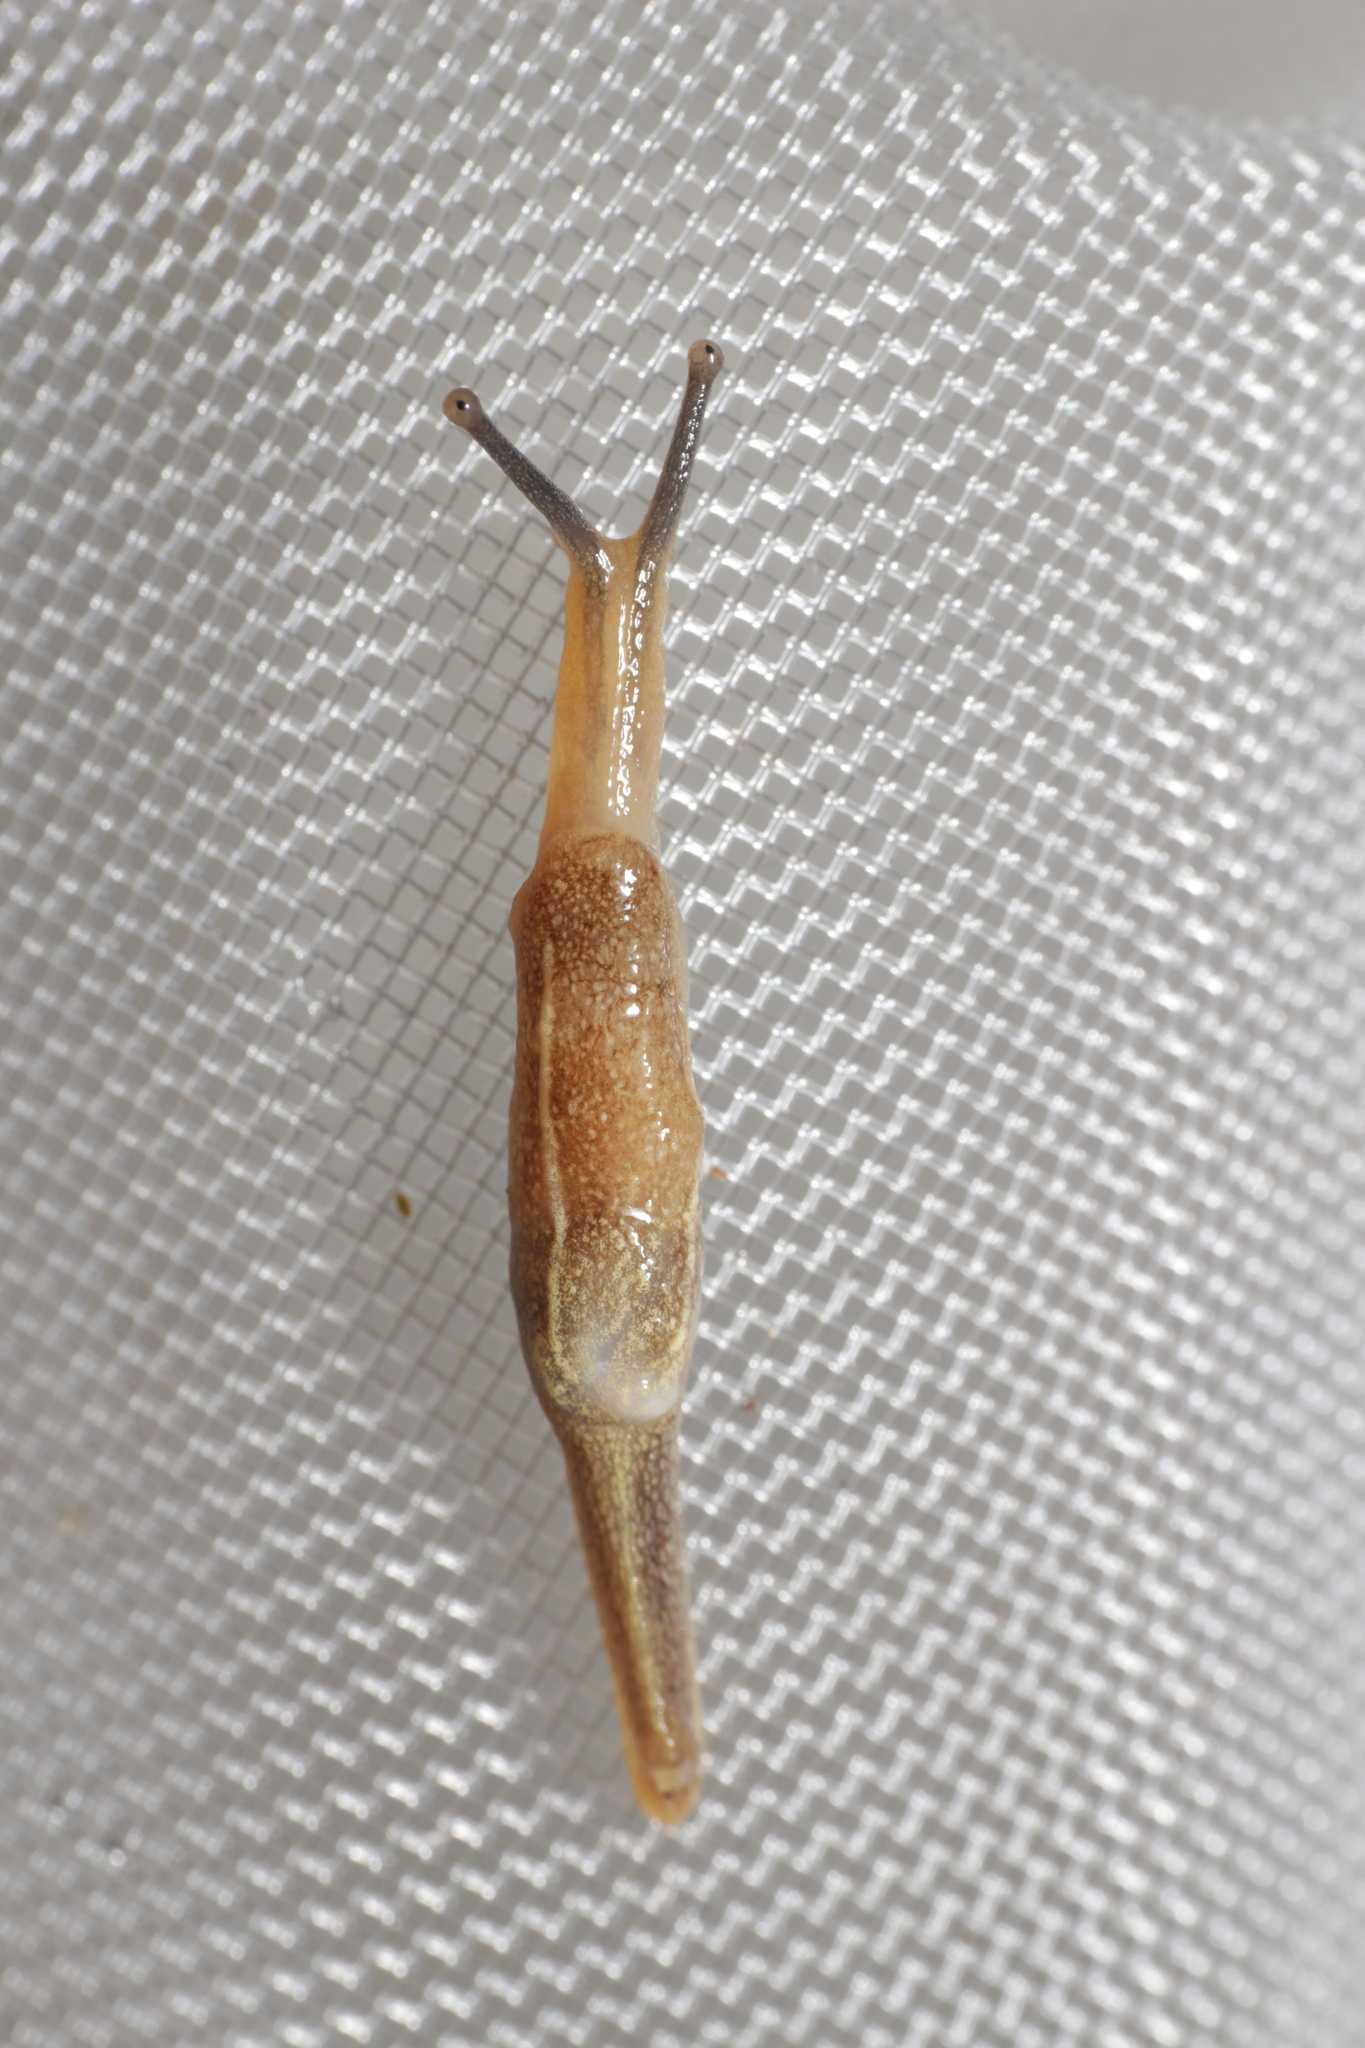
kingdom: Animalia
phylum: Mollusca
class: Gastropoda
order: Stylommatophora
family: Ariophantidae
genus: Mariaella
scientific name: Mariaella dussumieri
